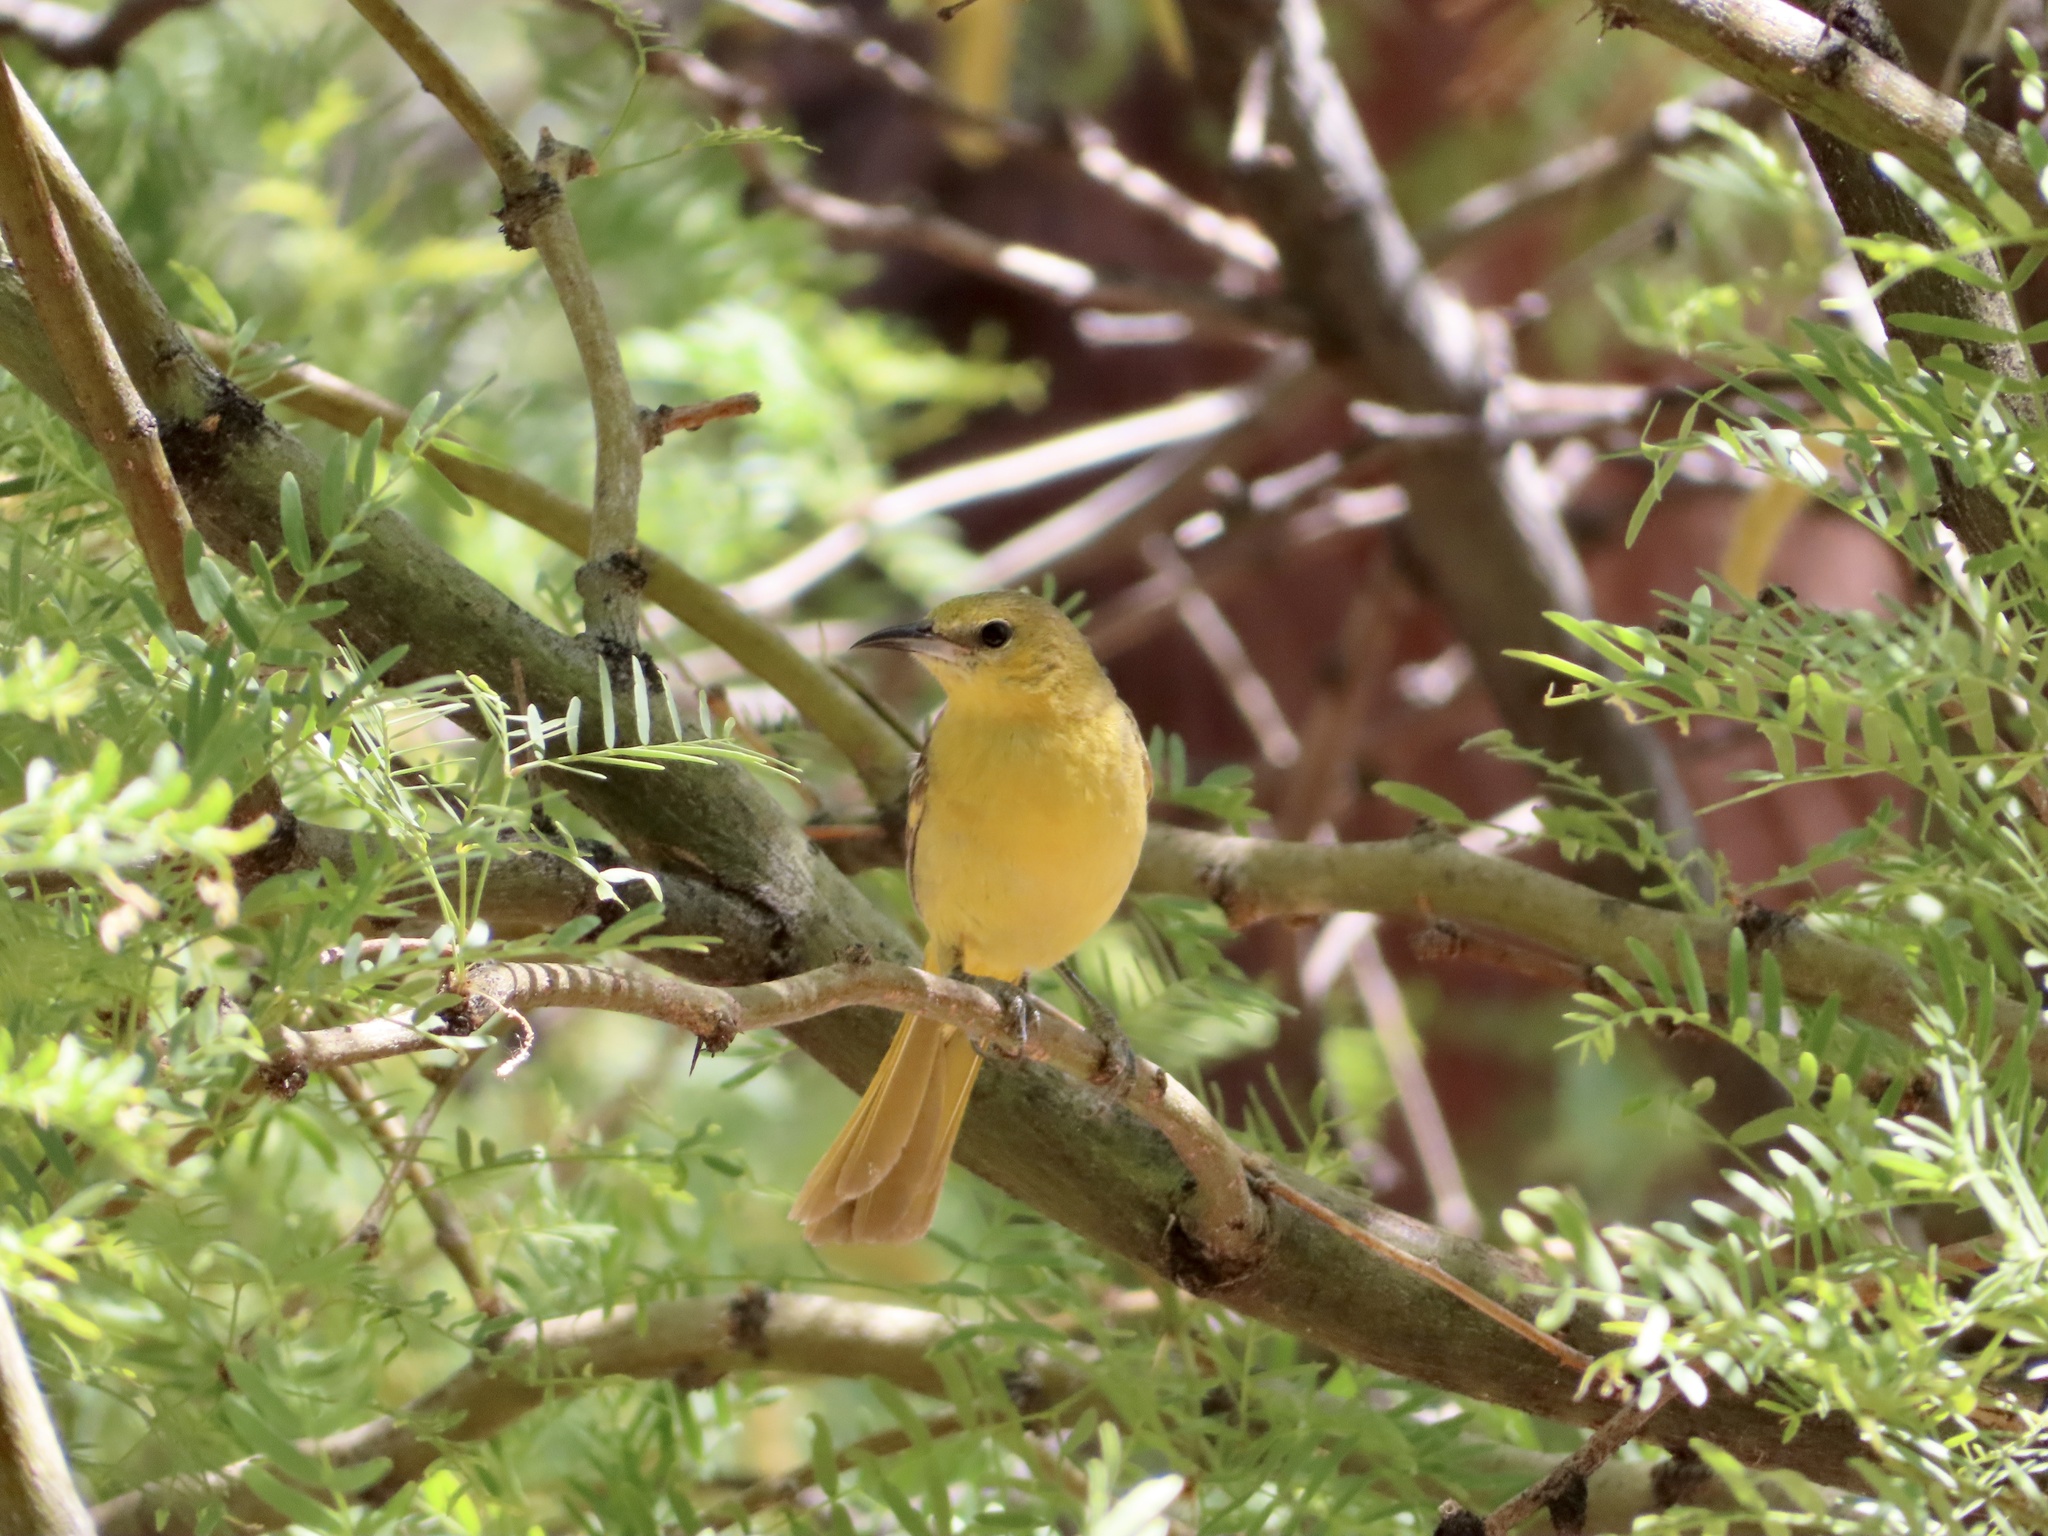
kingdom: Animalia
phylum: Chordata
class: Aves
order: Passeriformes
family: Icteridae
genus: Icterus
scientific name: Icterus cucullatus
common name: Hooded oriole
